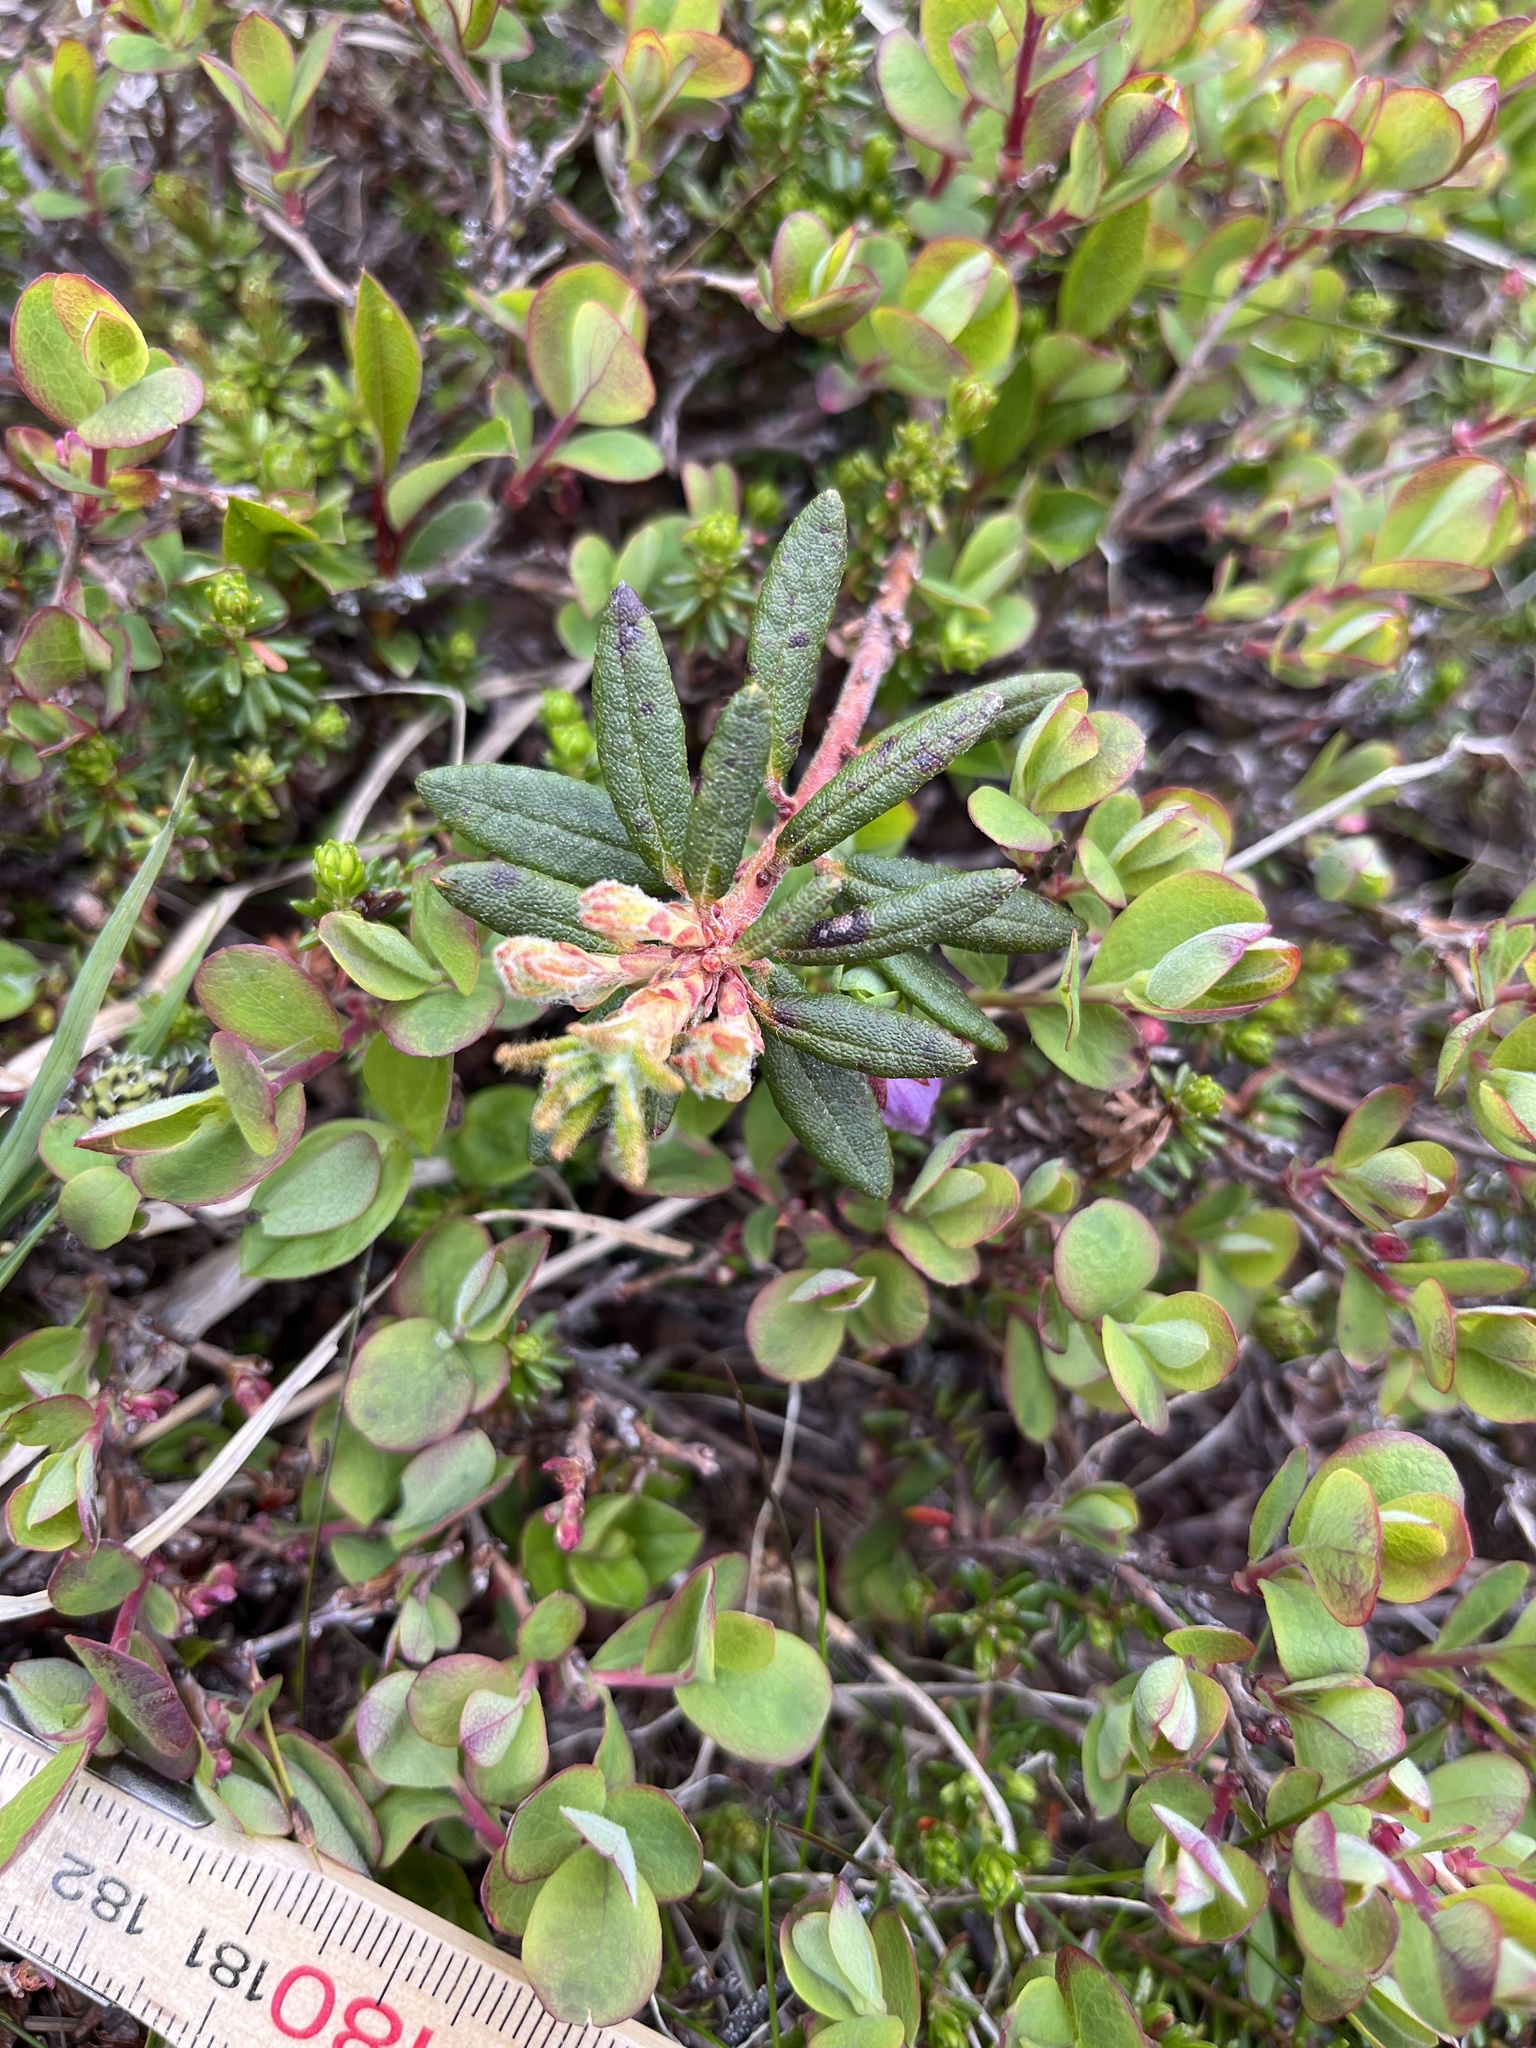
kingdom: Plantae
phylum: Tracheophyta
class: Magnoliopsida
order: Ericales
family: Ericaceae
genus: Rhododendron
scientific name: Rhododendron groenlandicum
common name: Bog labrador tea
